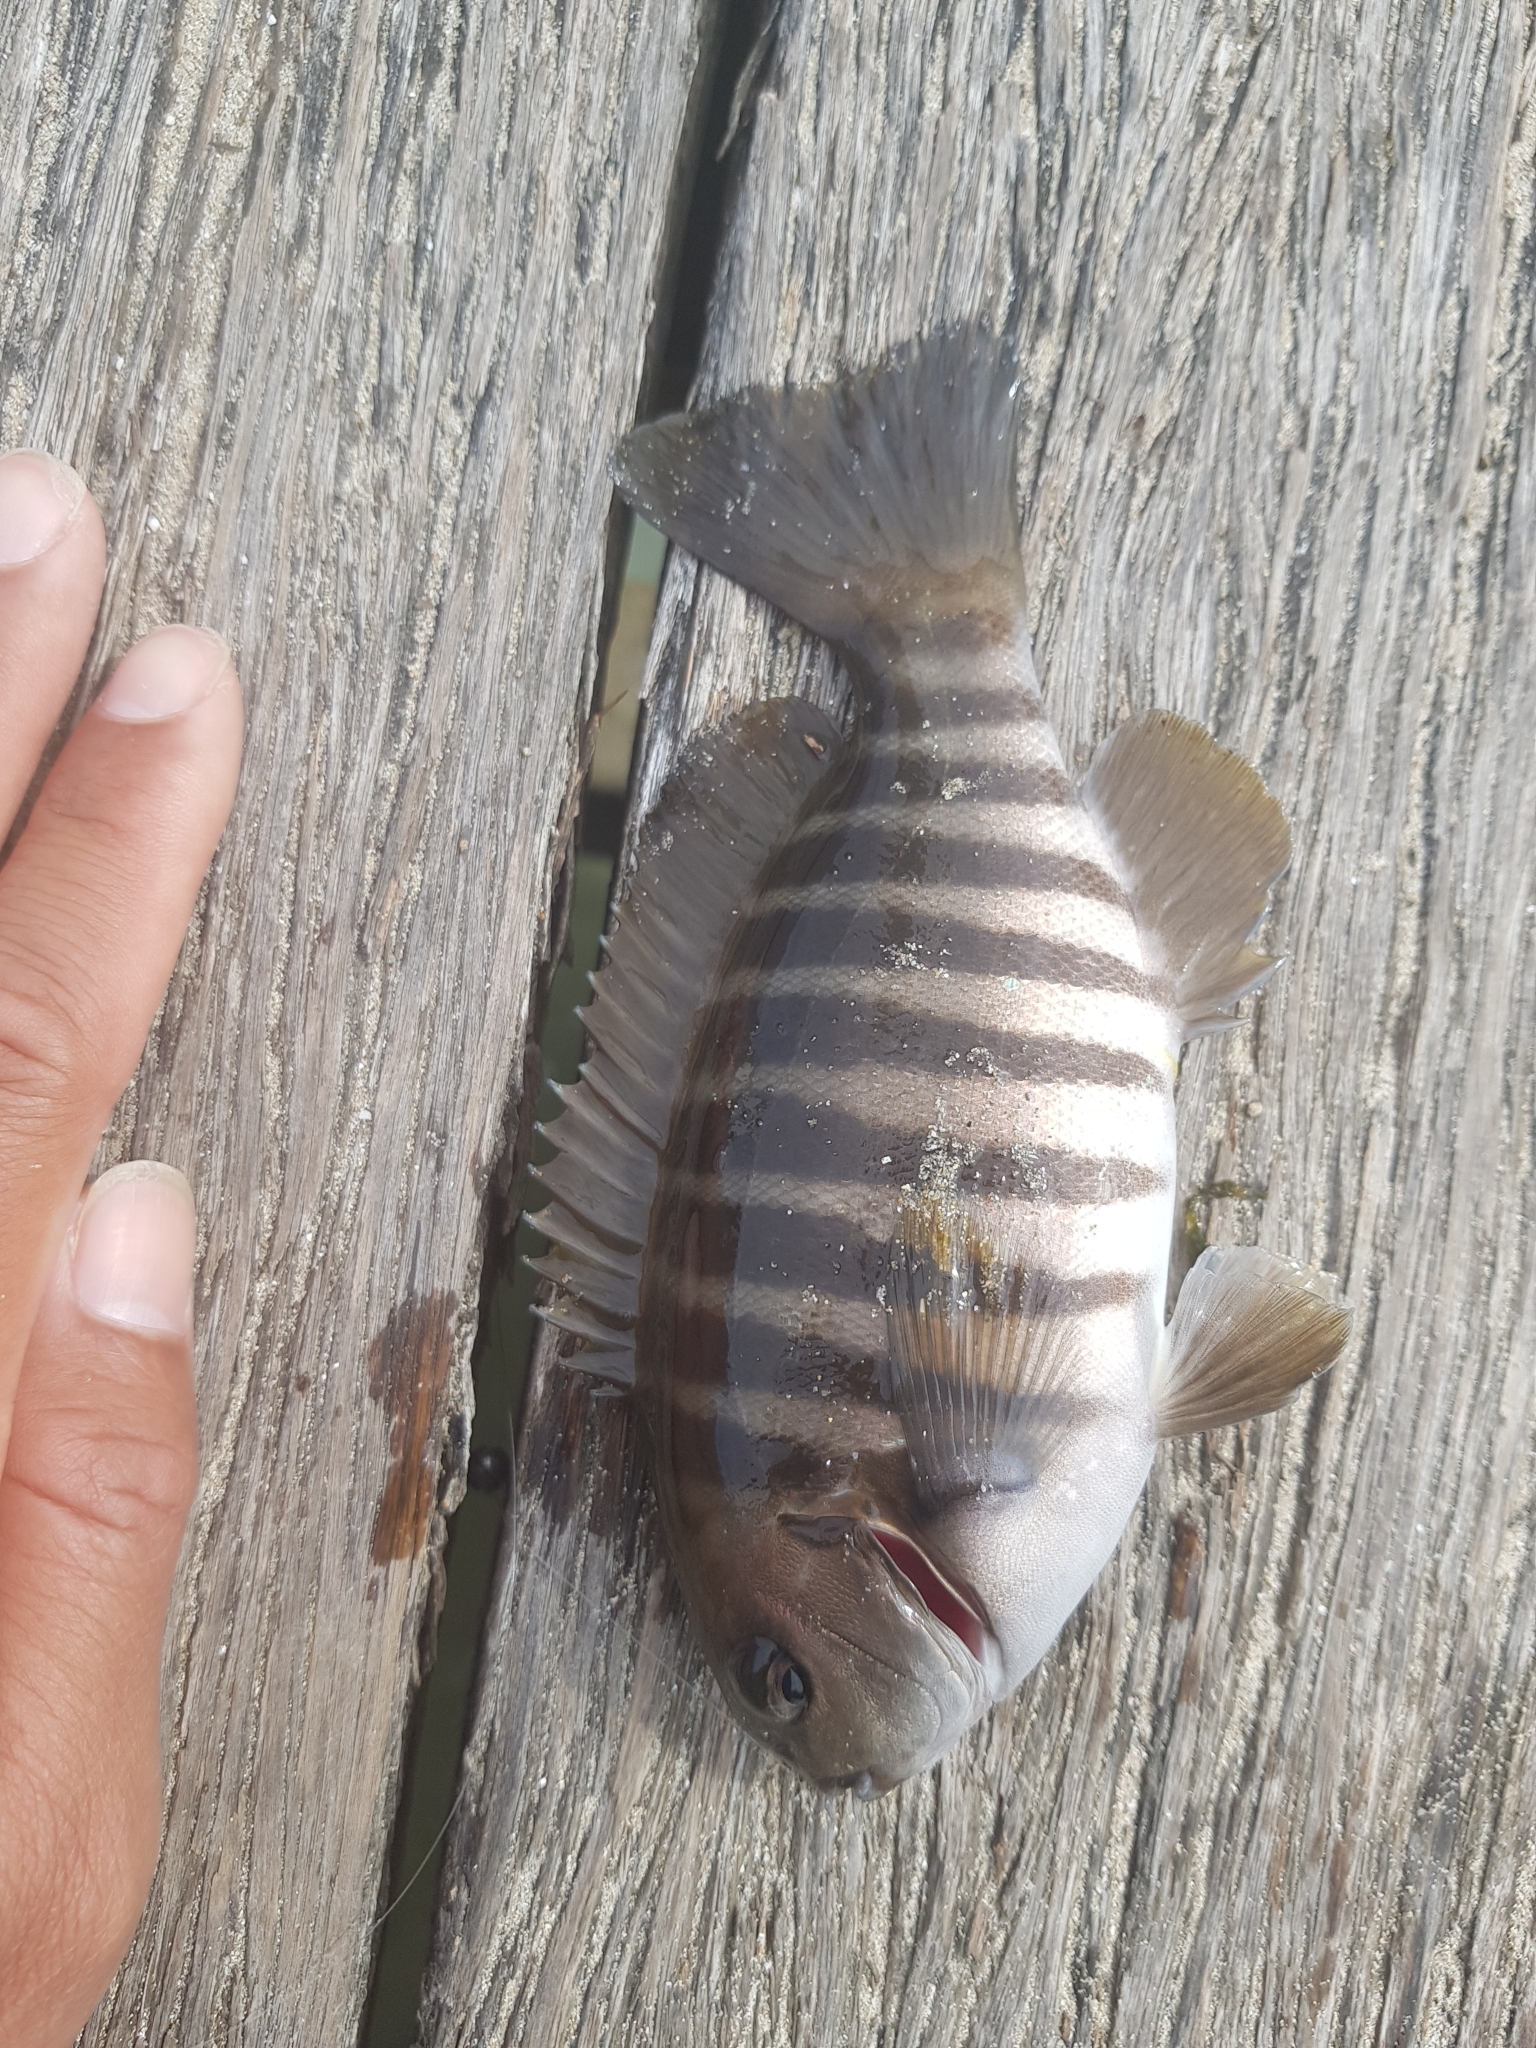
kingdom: Animalia
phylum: Chordata
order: Perciformes
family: Kyphosidae
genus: Girella
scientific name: Girella zebra
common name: Stripey bream
